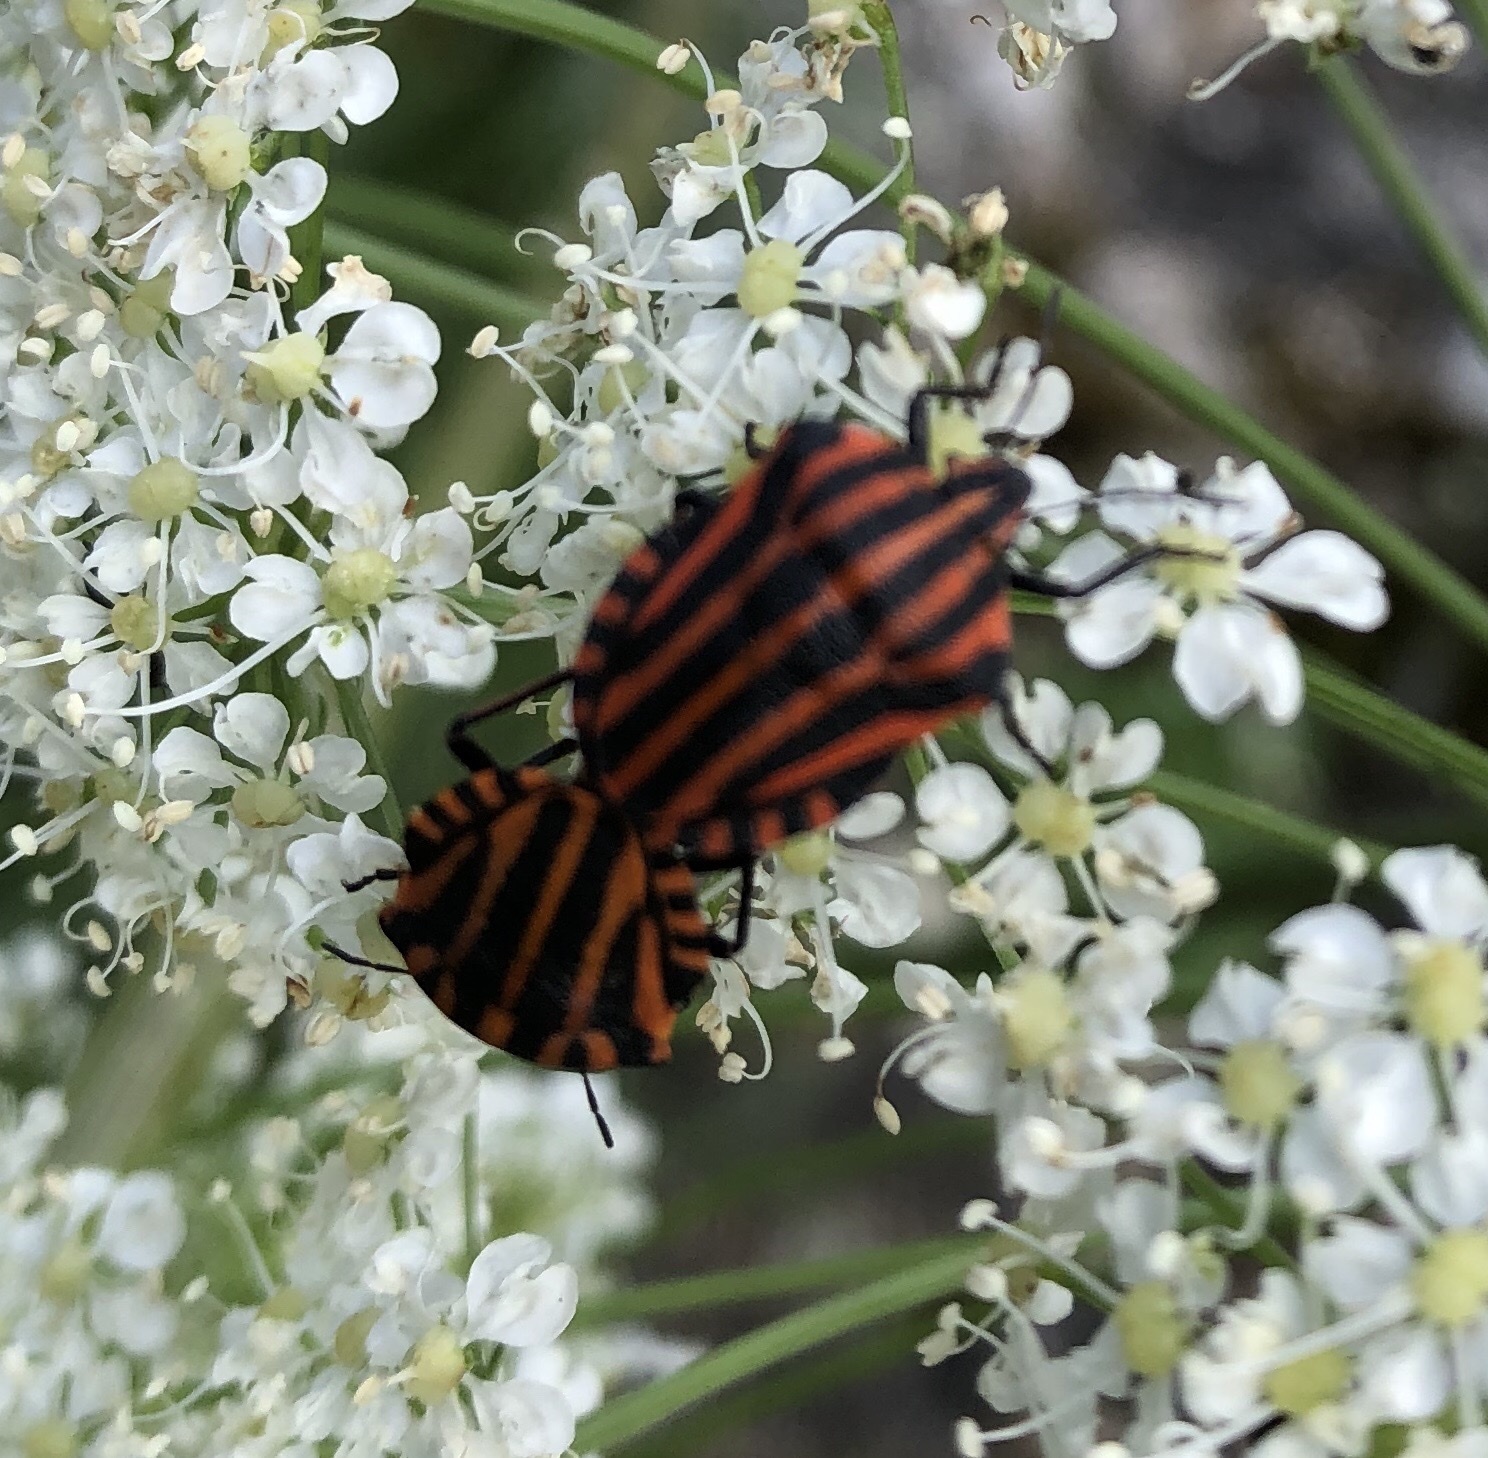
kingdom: Animalia
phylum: Arthropoda
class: Insecta
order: Hemiptera
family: Pentatomidae
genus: Graphosoma
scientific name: Graphosoma italicum
